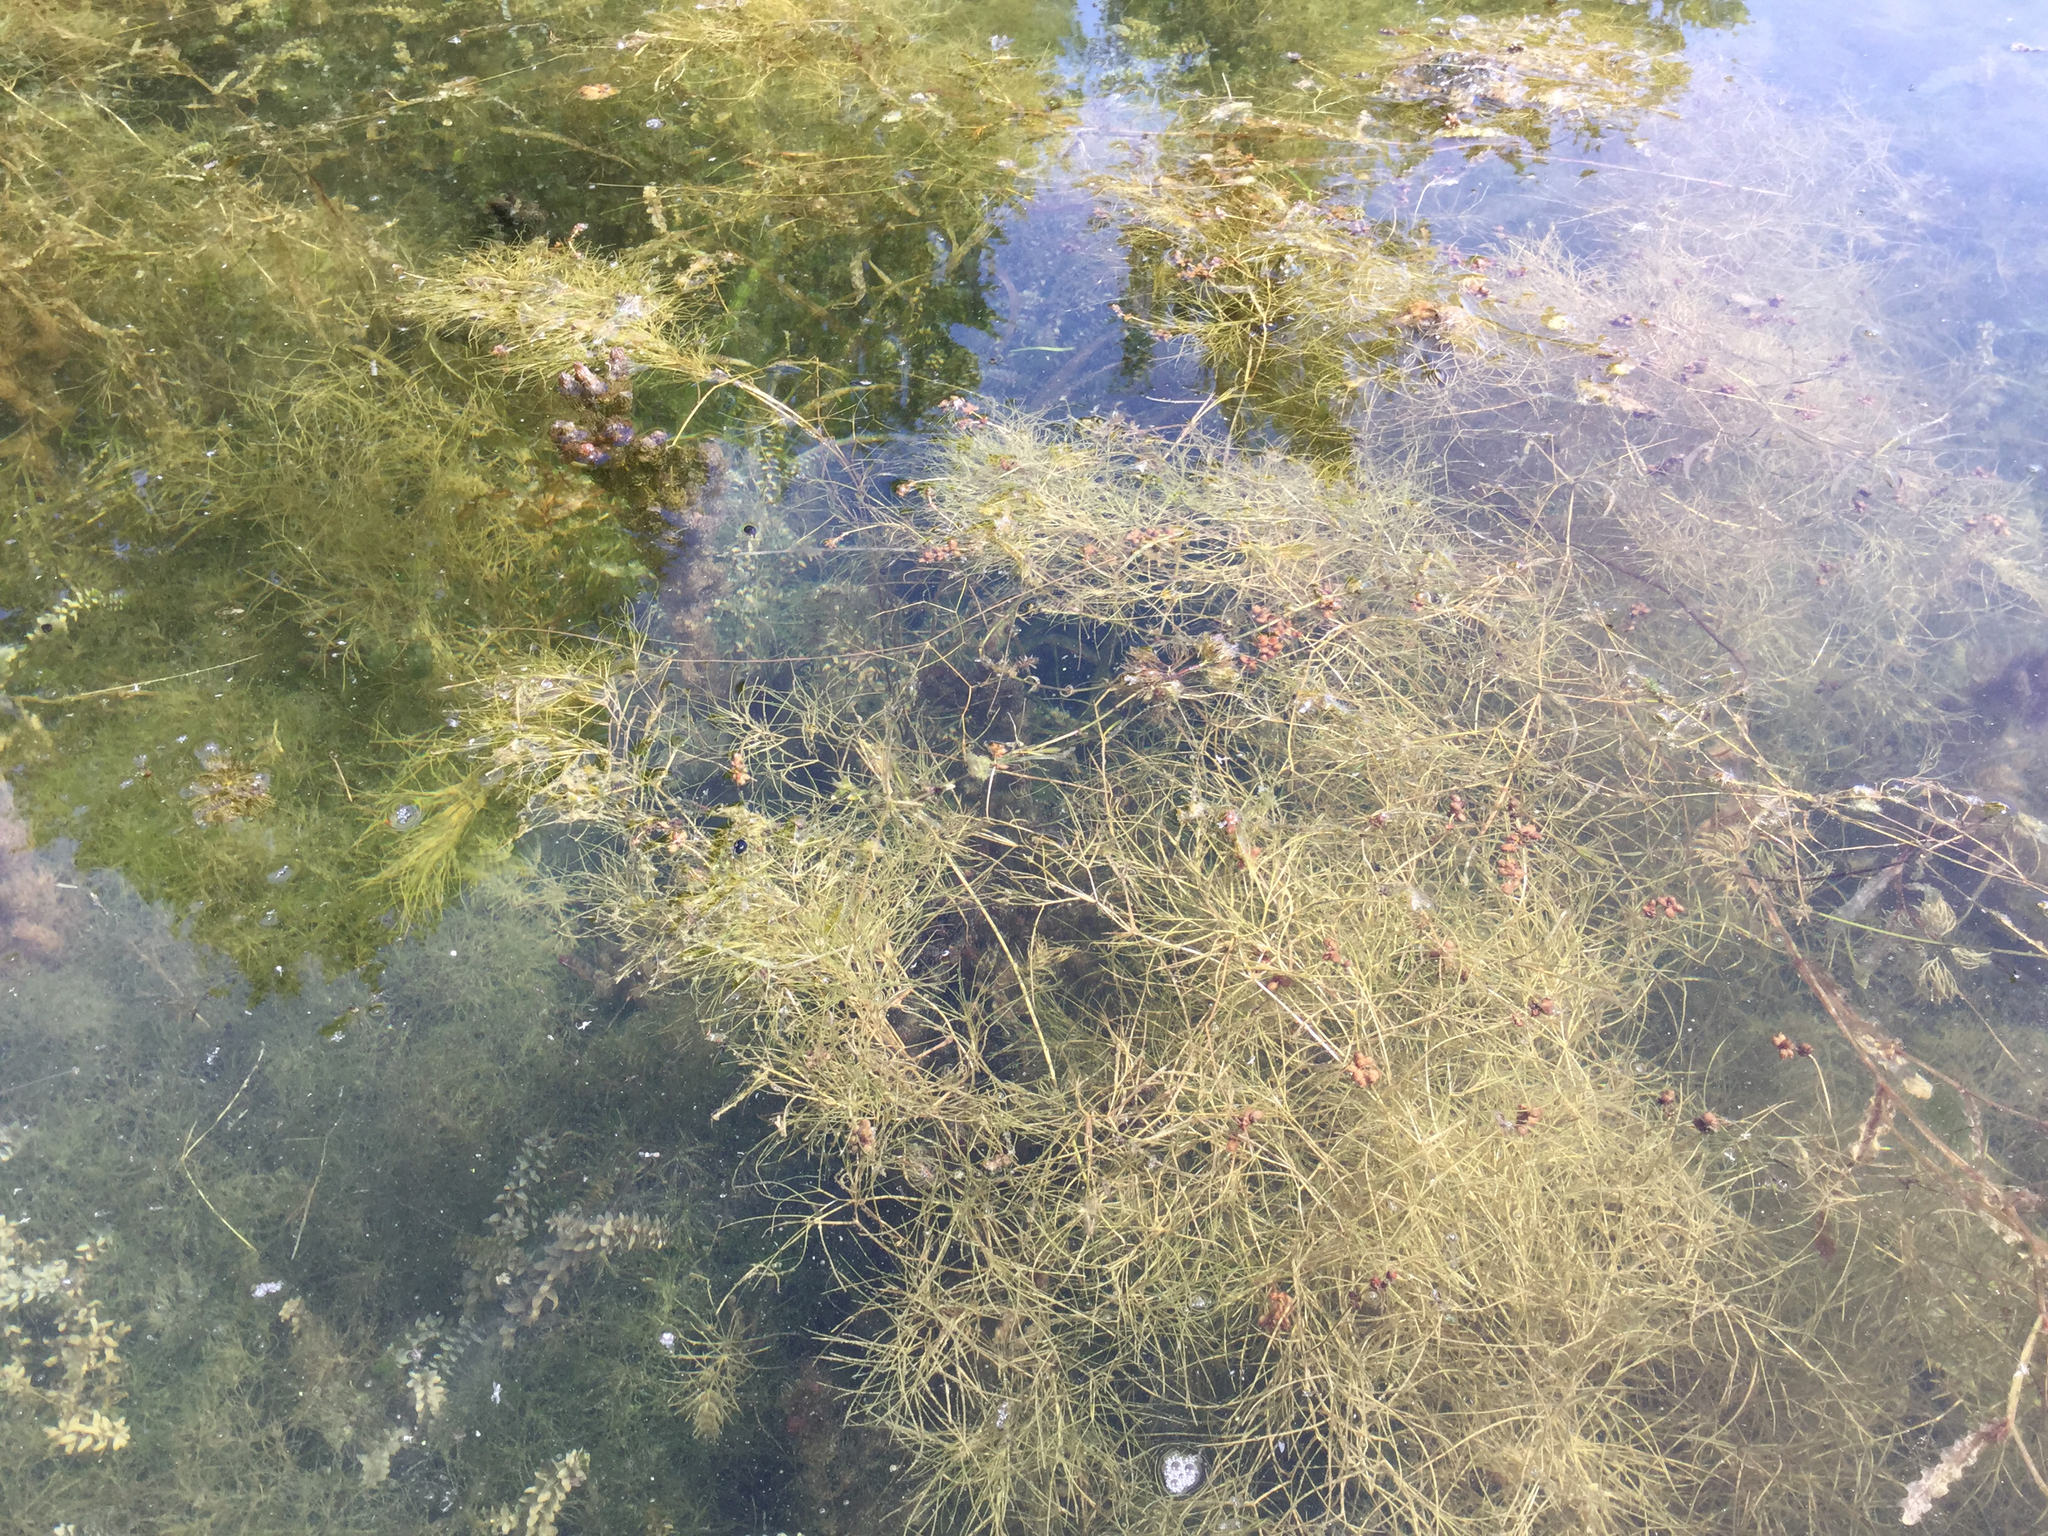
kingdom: Plantae
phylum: Tracheophyta
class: Liliopsida
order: Alismatales
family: Potamogetonaceae
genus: Stuckenia
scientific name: Stuckenia pectinata
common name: Sago pondweed
